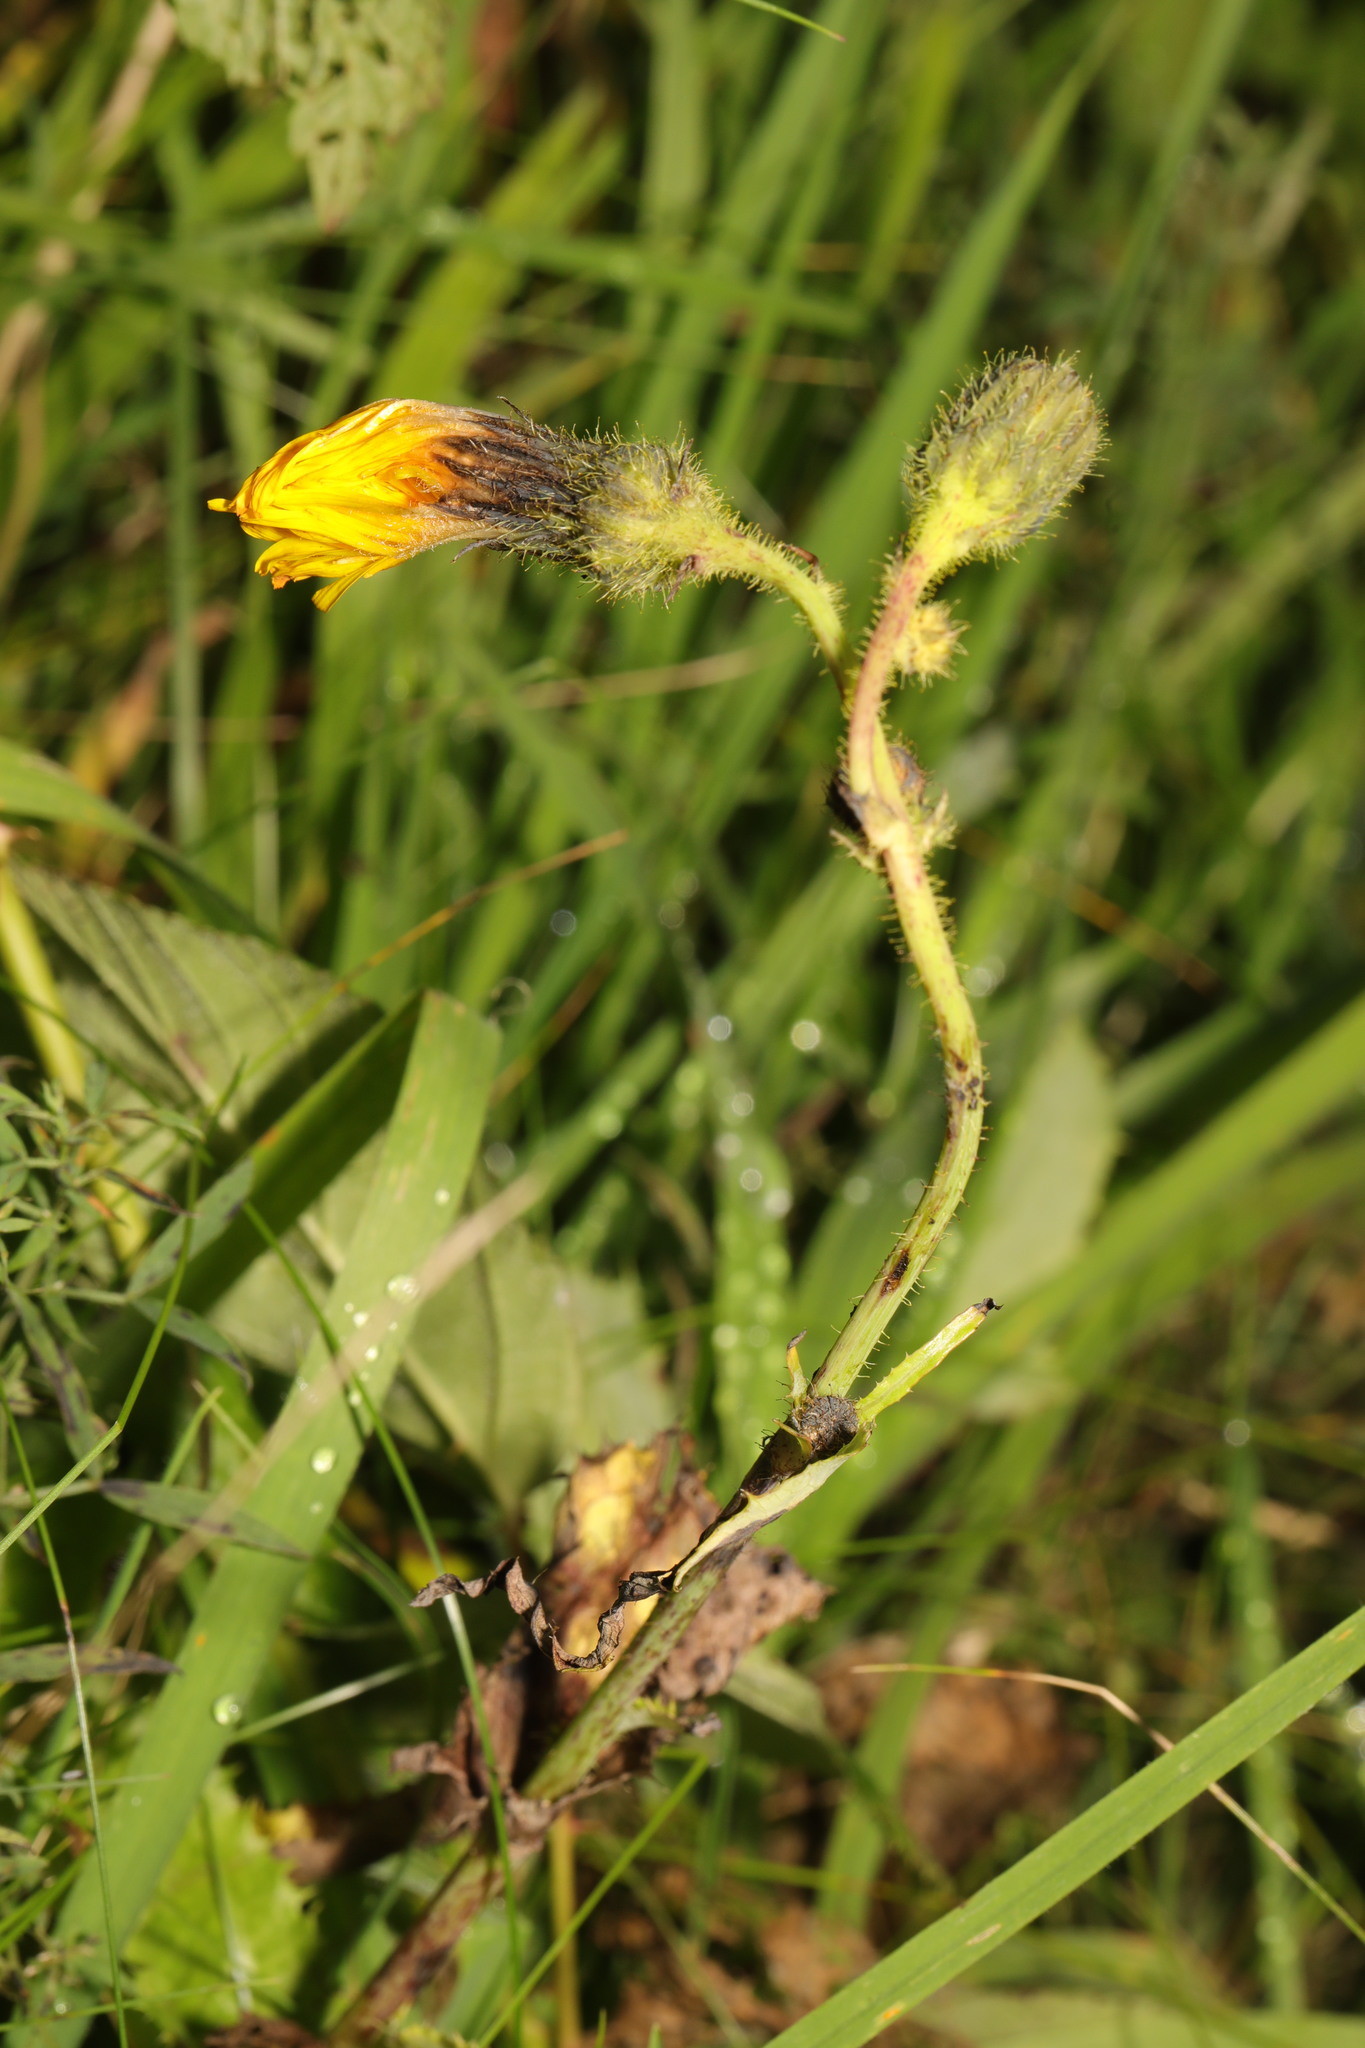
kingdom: Plantae
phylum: Tracheophyta
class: Magnoliopsida
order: Asterales
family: Asteraceae
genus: Sonchus
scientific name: Sonchus arvensis
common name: Perennial sow-thistle
